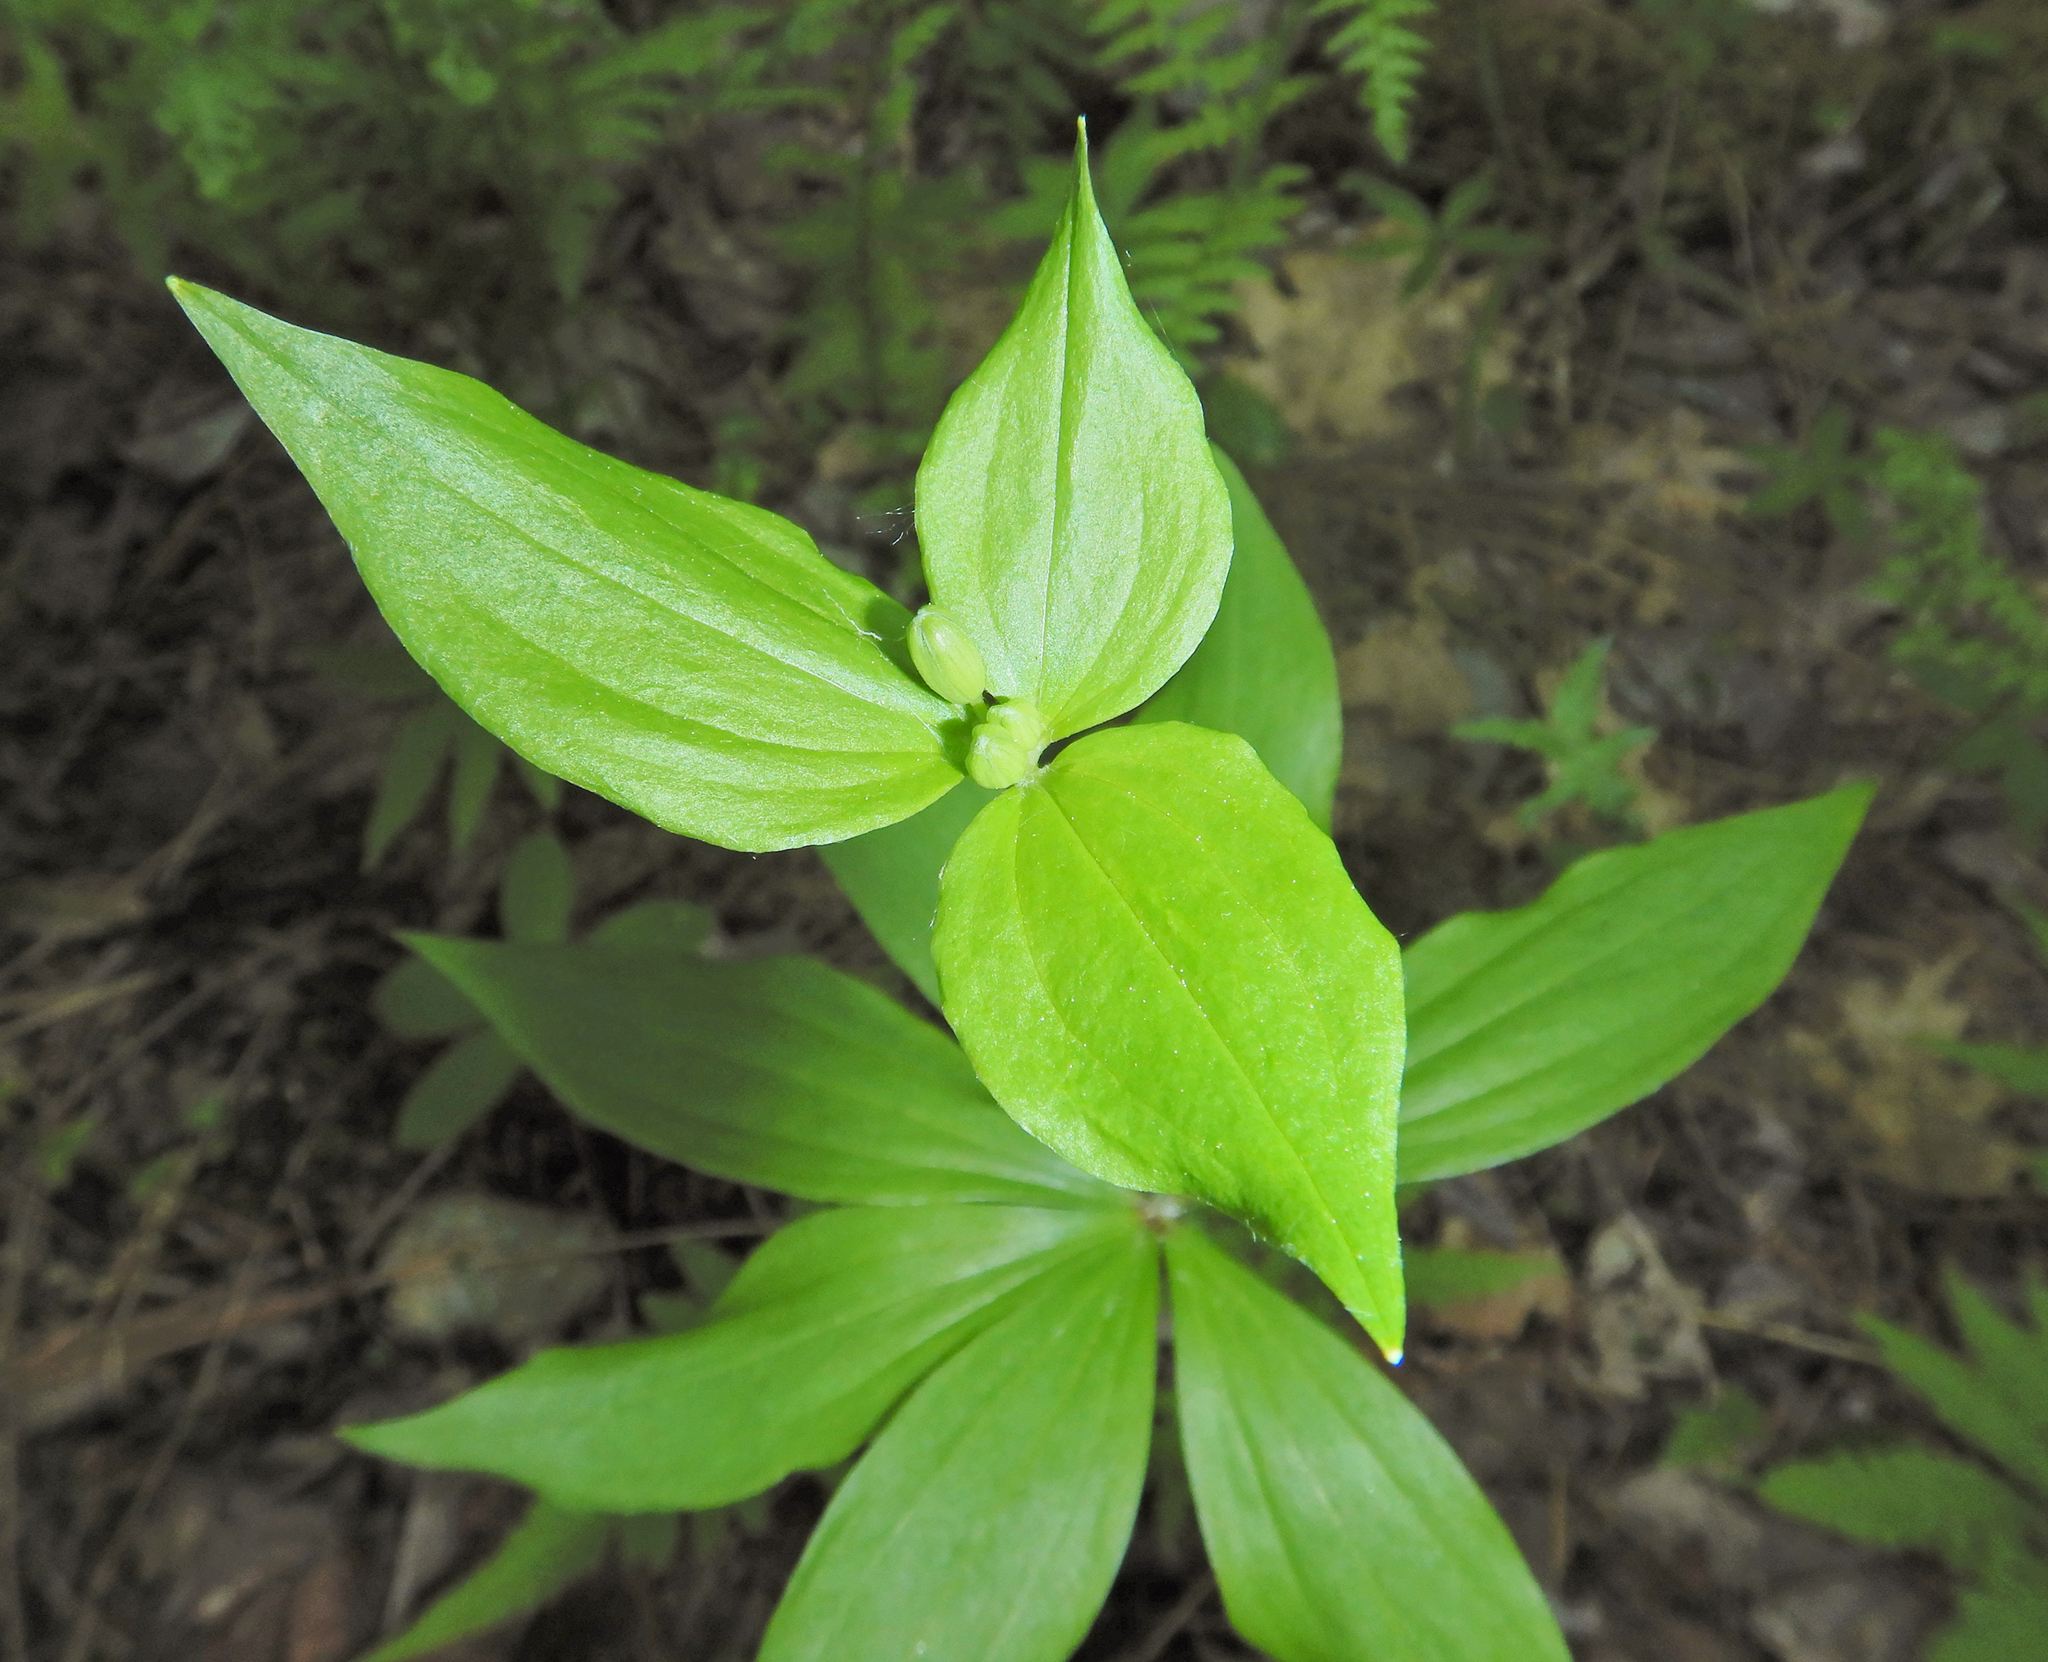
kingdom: Plantae
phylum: Tracheophyta
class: Liliopsida
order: Liliales
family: Liliaceae
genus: Medeola
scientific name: Medeola virginiana
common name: Indian cucumber-root
